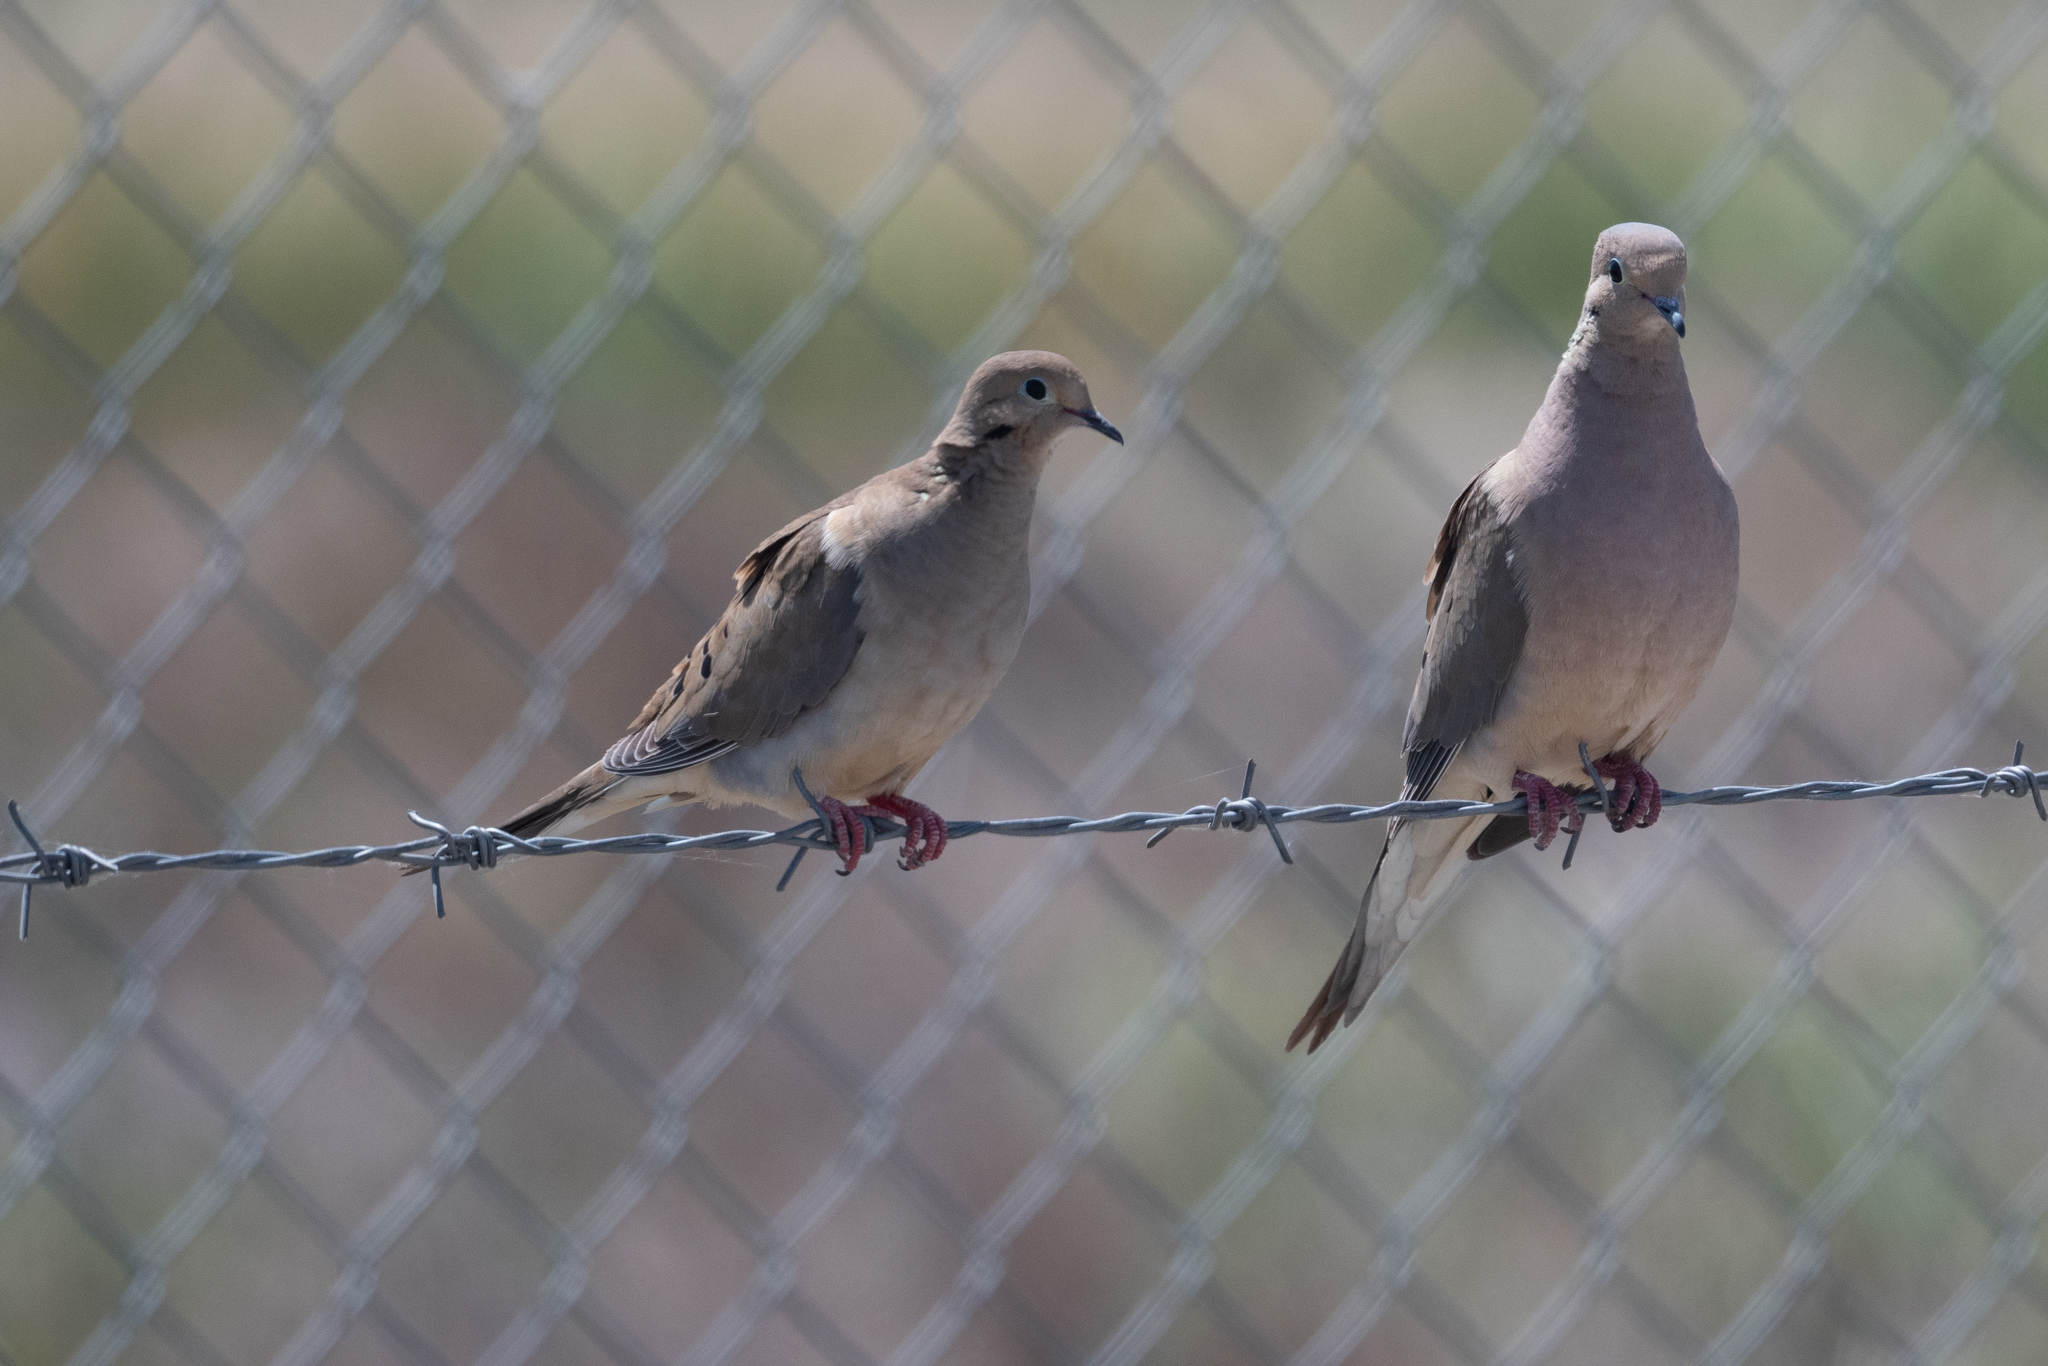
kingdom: Animalia
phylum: Chordata
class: Aves
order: Columbiformes
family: Columbidae
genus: Zenaida
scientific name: Zenaida macroura
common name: Mourning dove
